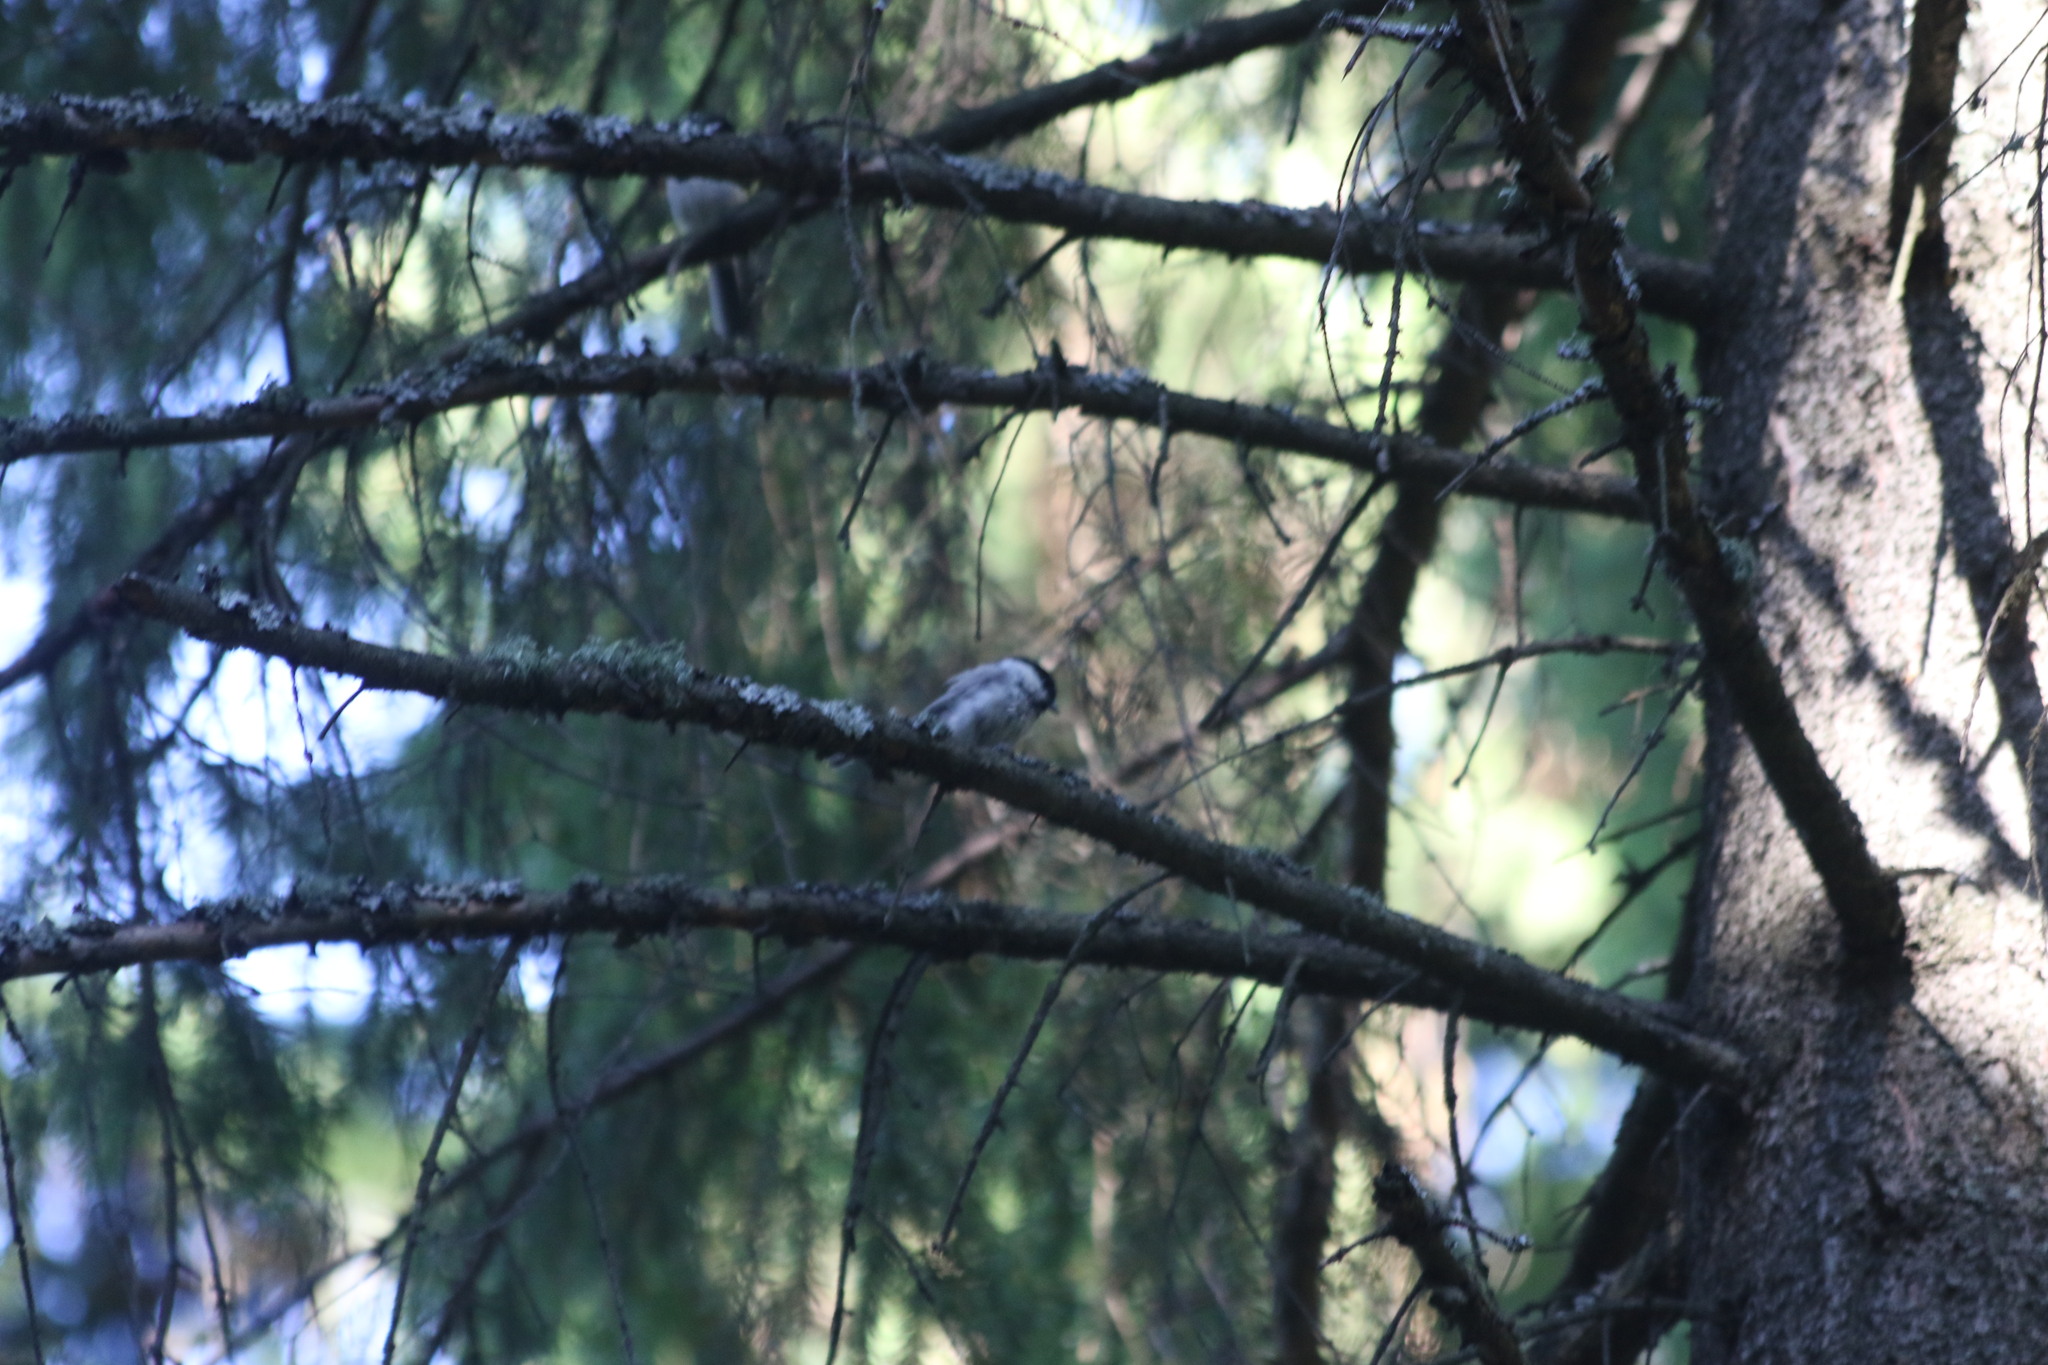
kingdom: Animalia
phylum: Chordata
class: Aves
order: Passeriformes
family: Paridae
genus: Poecile
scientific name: Poecile montanus
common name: Willow tit
